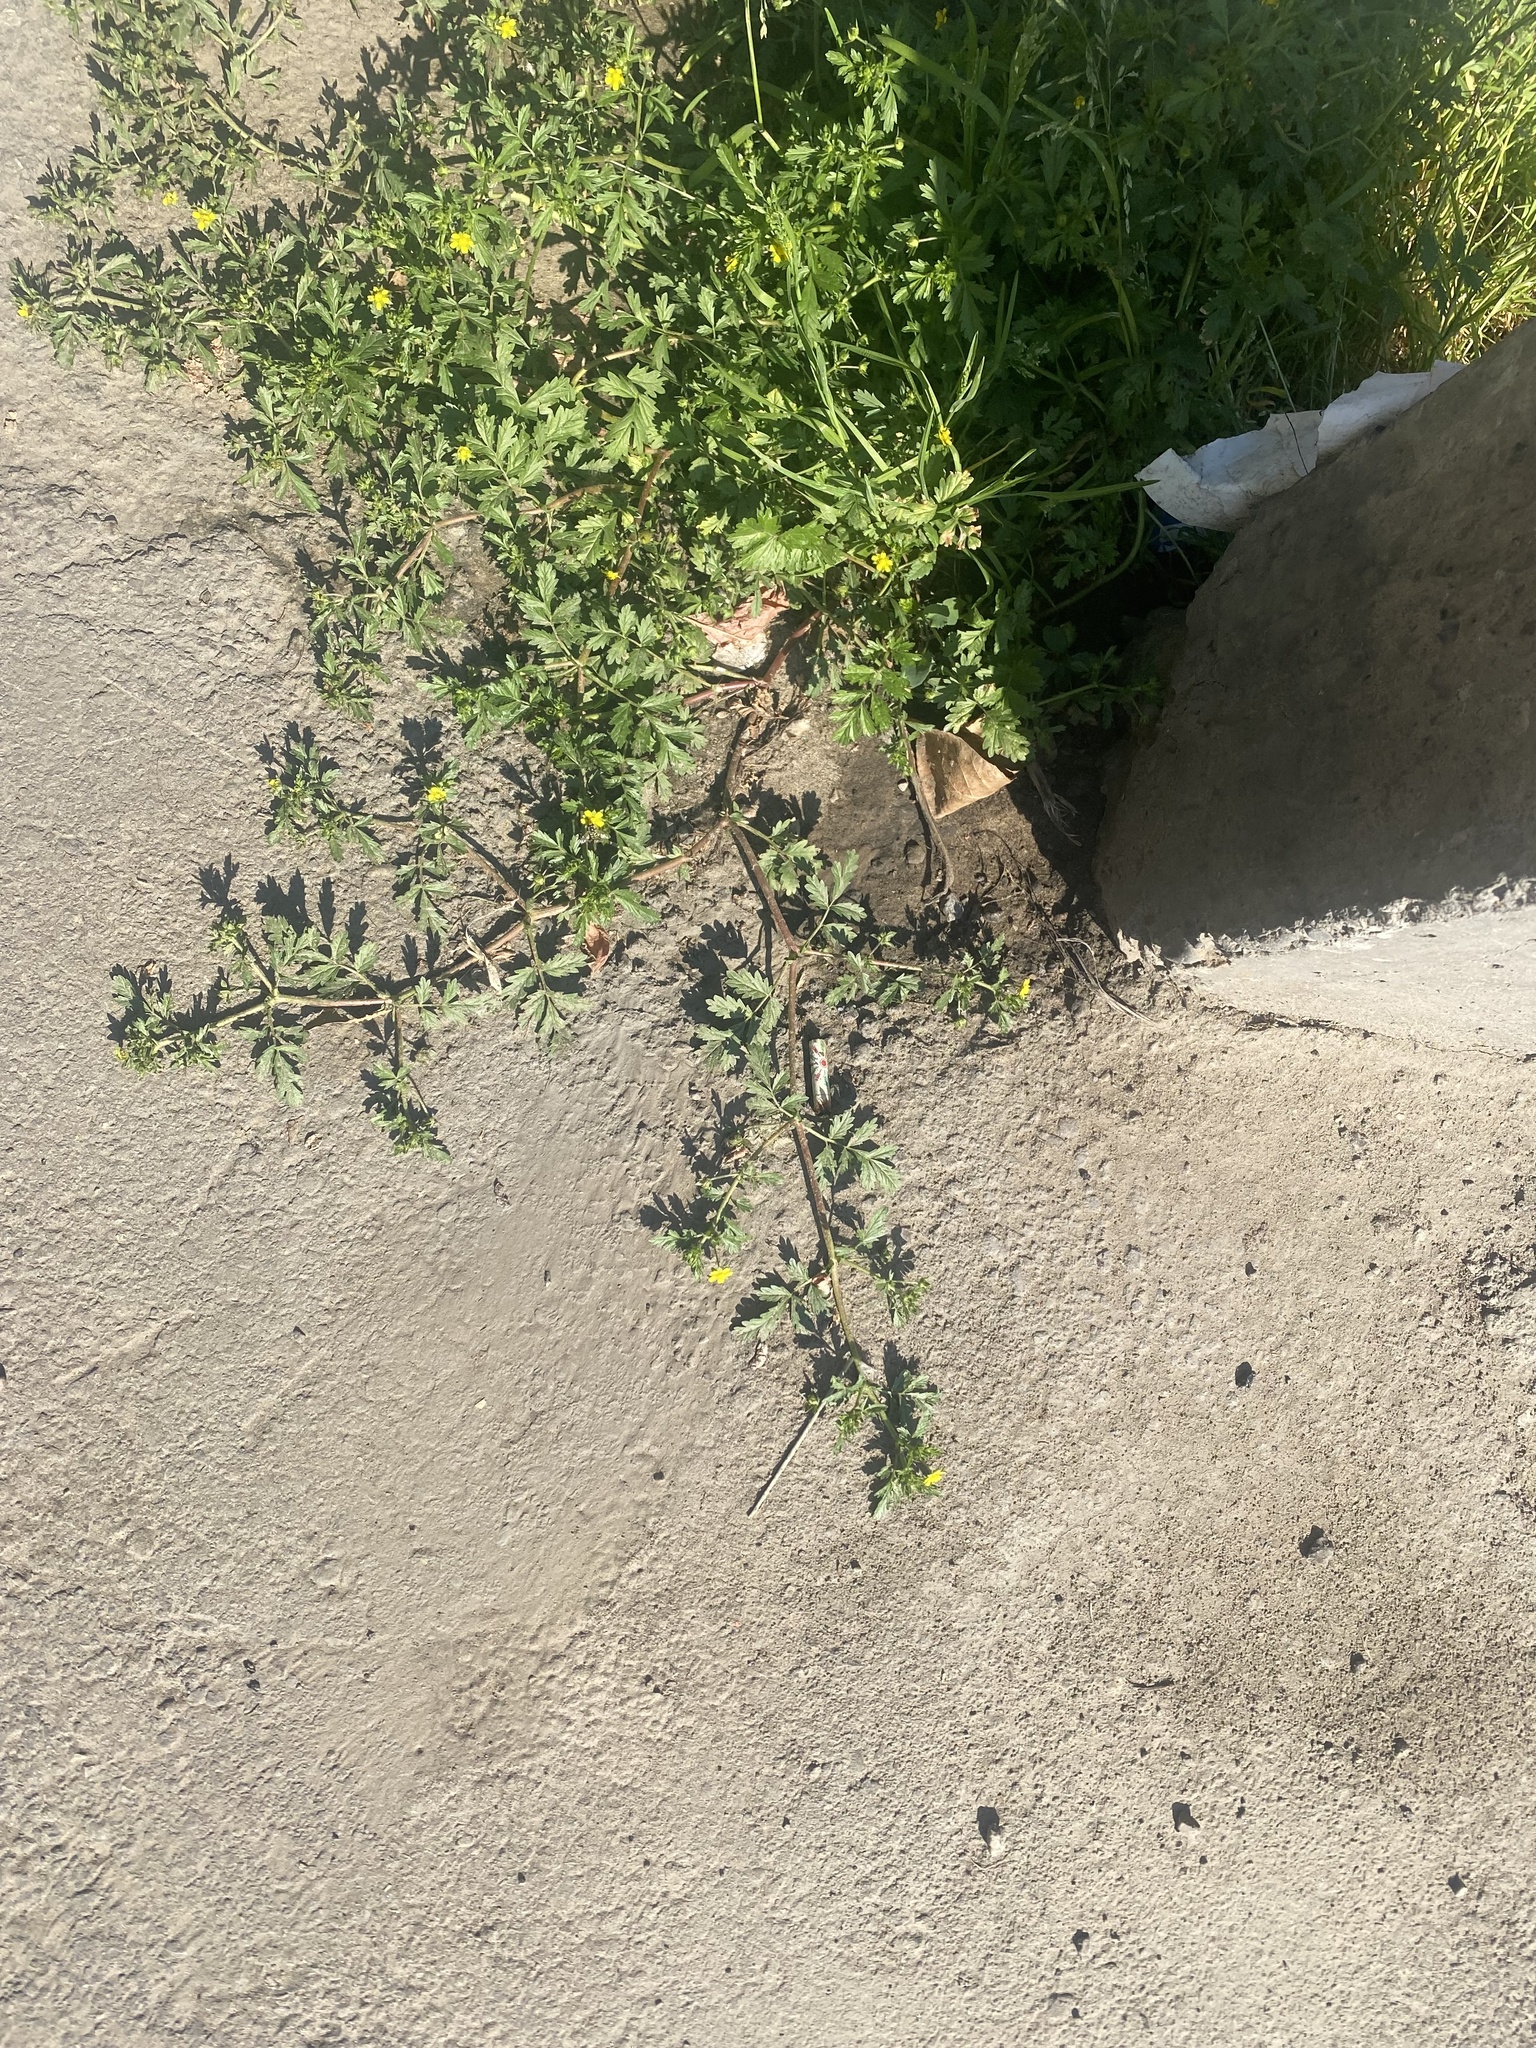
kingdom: Plantae
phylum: Tracheophyta
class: Magnoliopsida
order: Rosales
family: Rosaceae
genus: Potentilla
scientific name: Potentilla supina
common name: Prostrate cinquefoil
